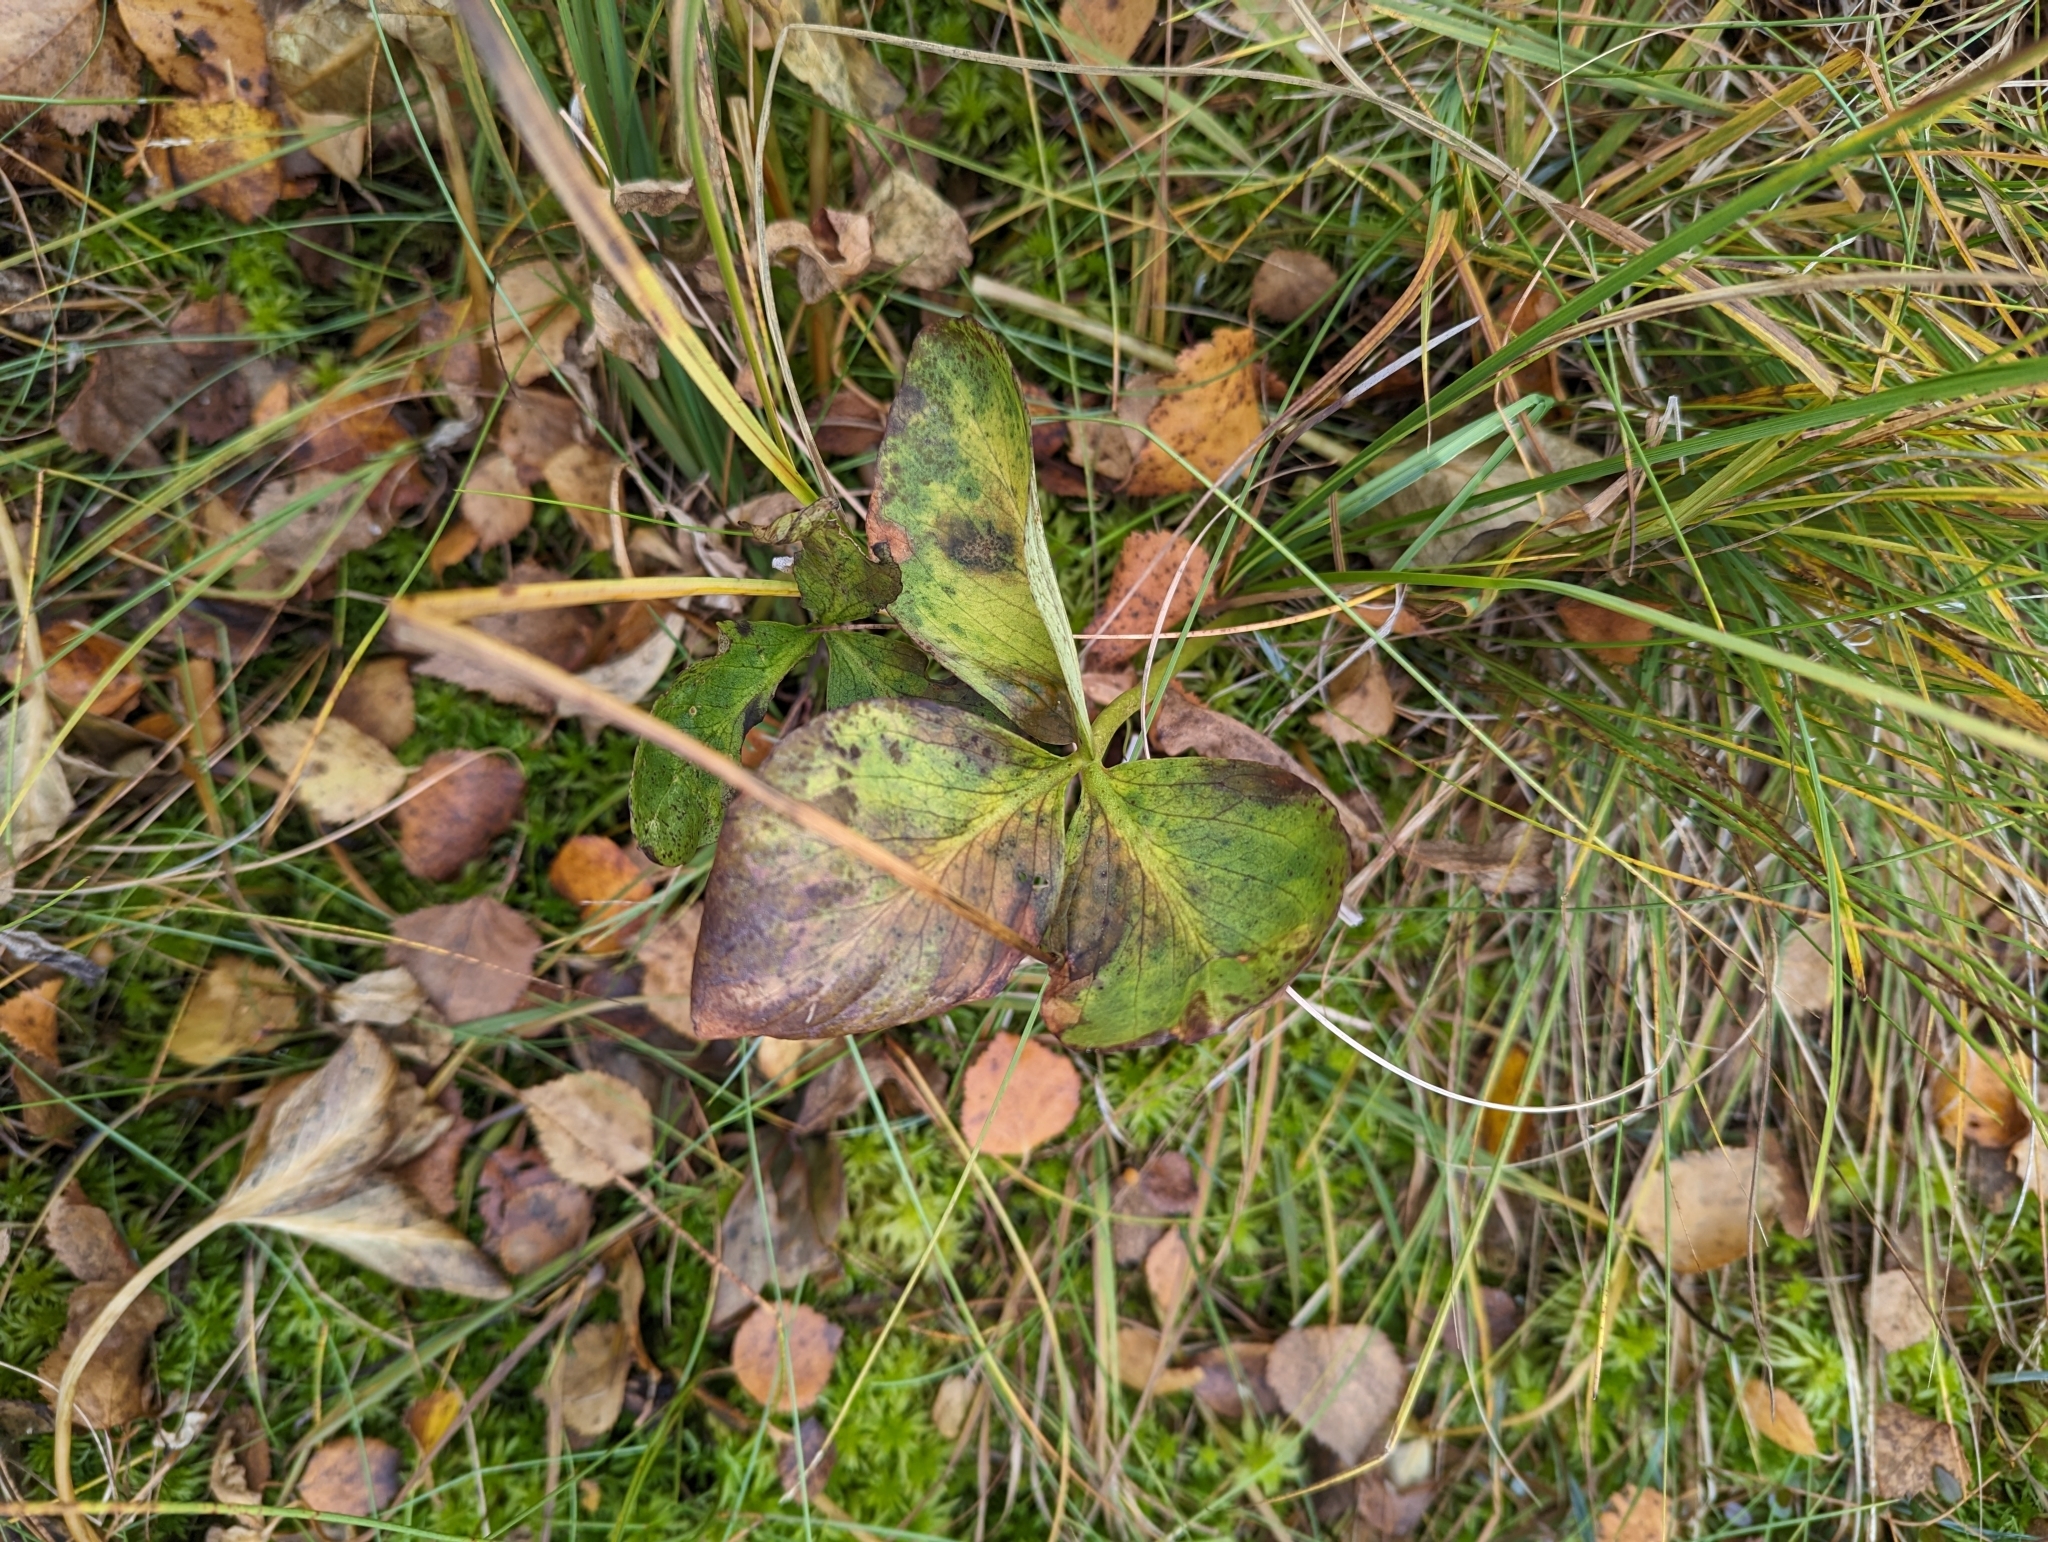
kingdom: Plantae
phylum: Tracheophyta
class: Magnoliopsida
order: Asterales
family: Menyanthaceae
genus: Menyanthes
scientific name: Menyanthes trifoliata
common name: Bogbean
